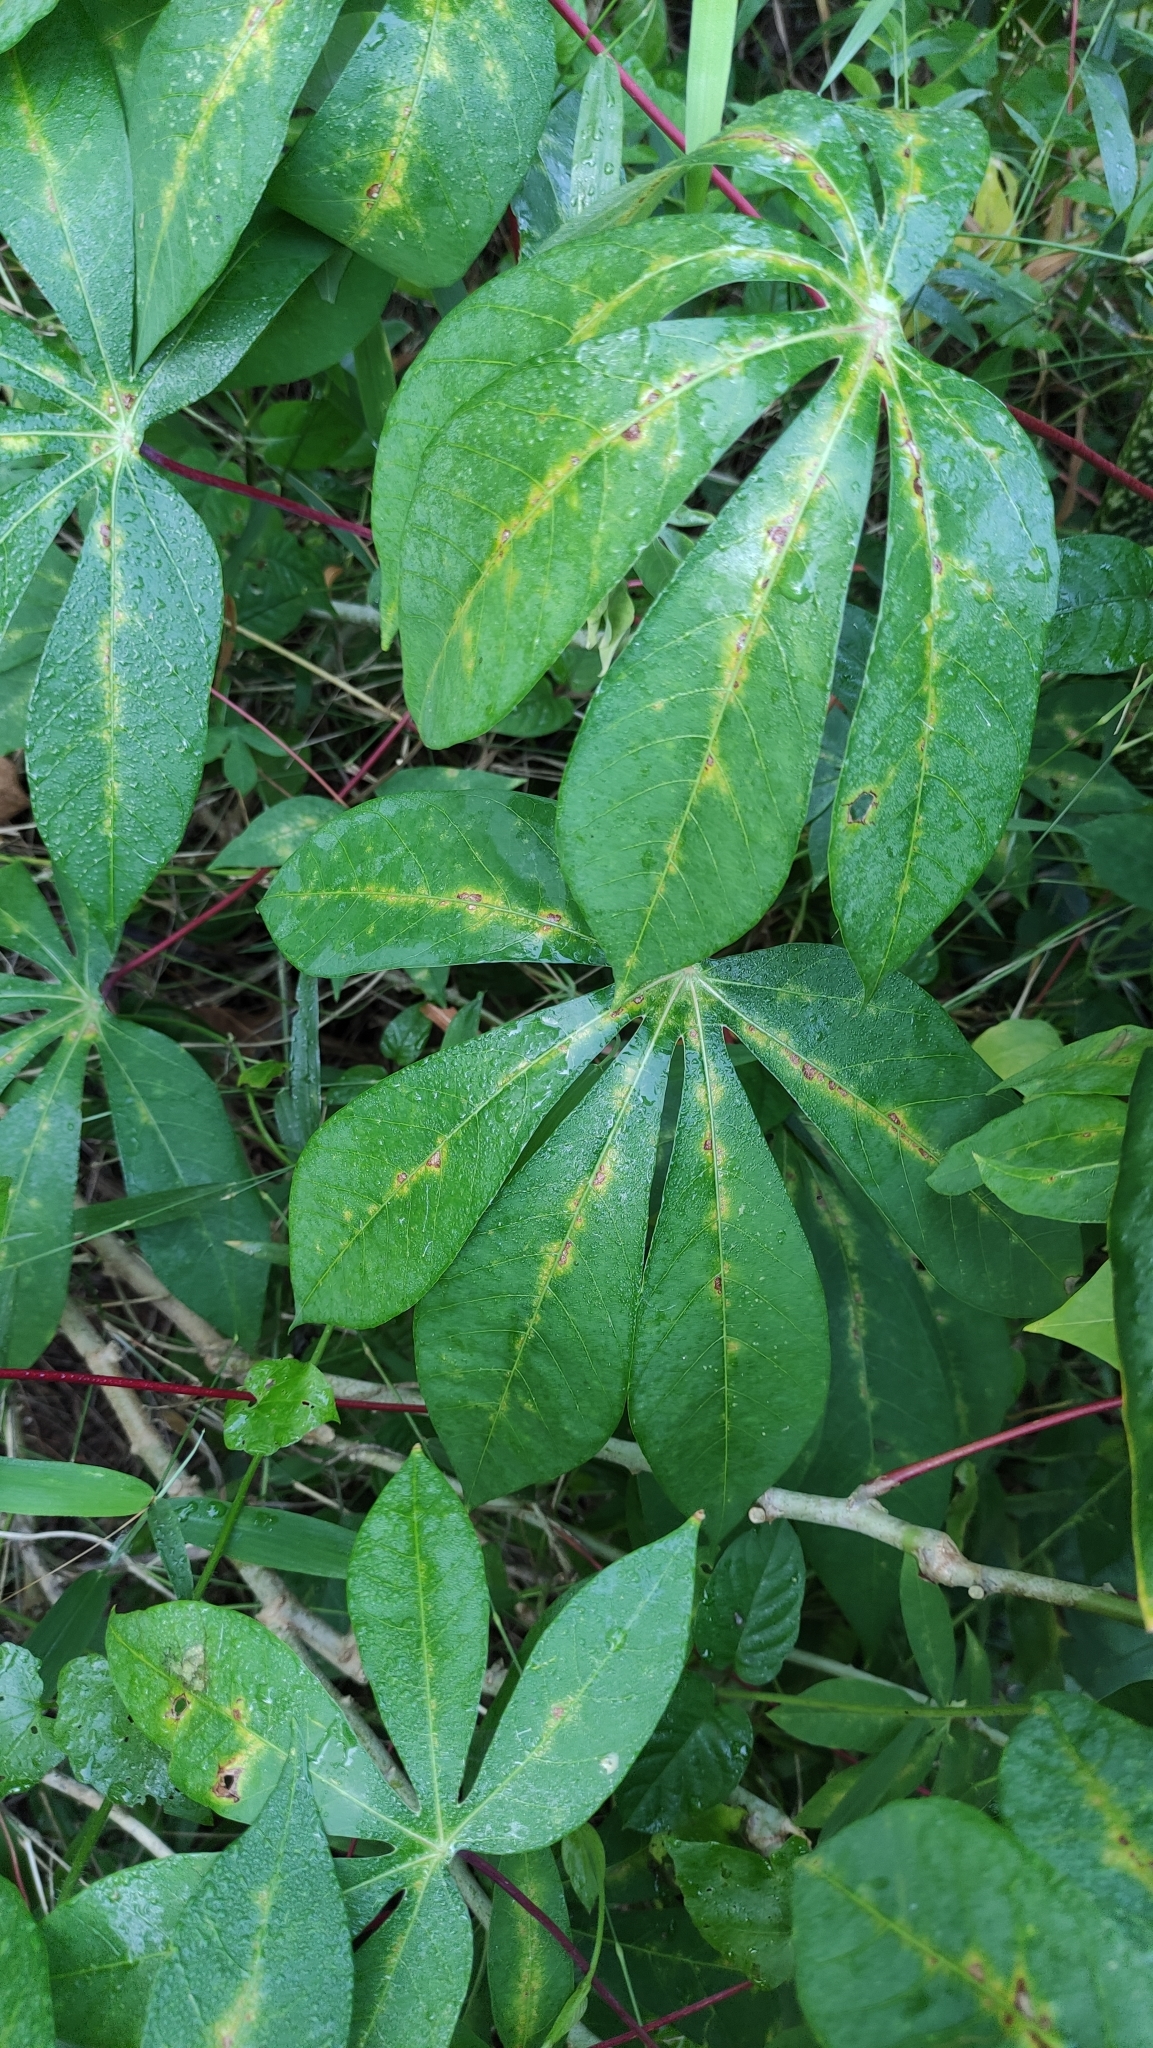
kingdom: Plantae
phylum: Tracheophyta
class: Magnoliopsida
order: Malpighiales
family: Euphorbiaceae
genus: Manihot
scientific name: Manihot esculenta
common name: Cassava
